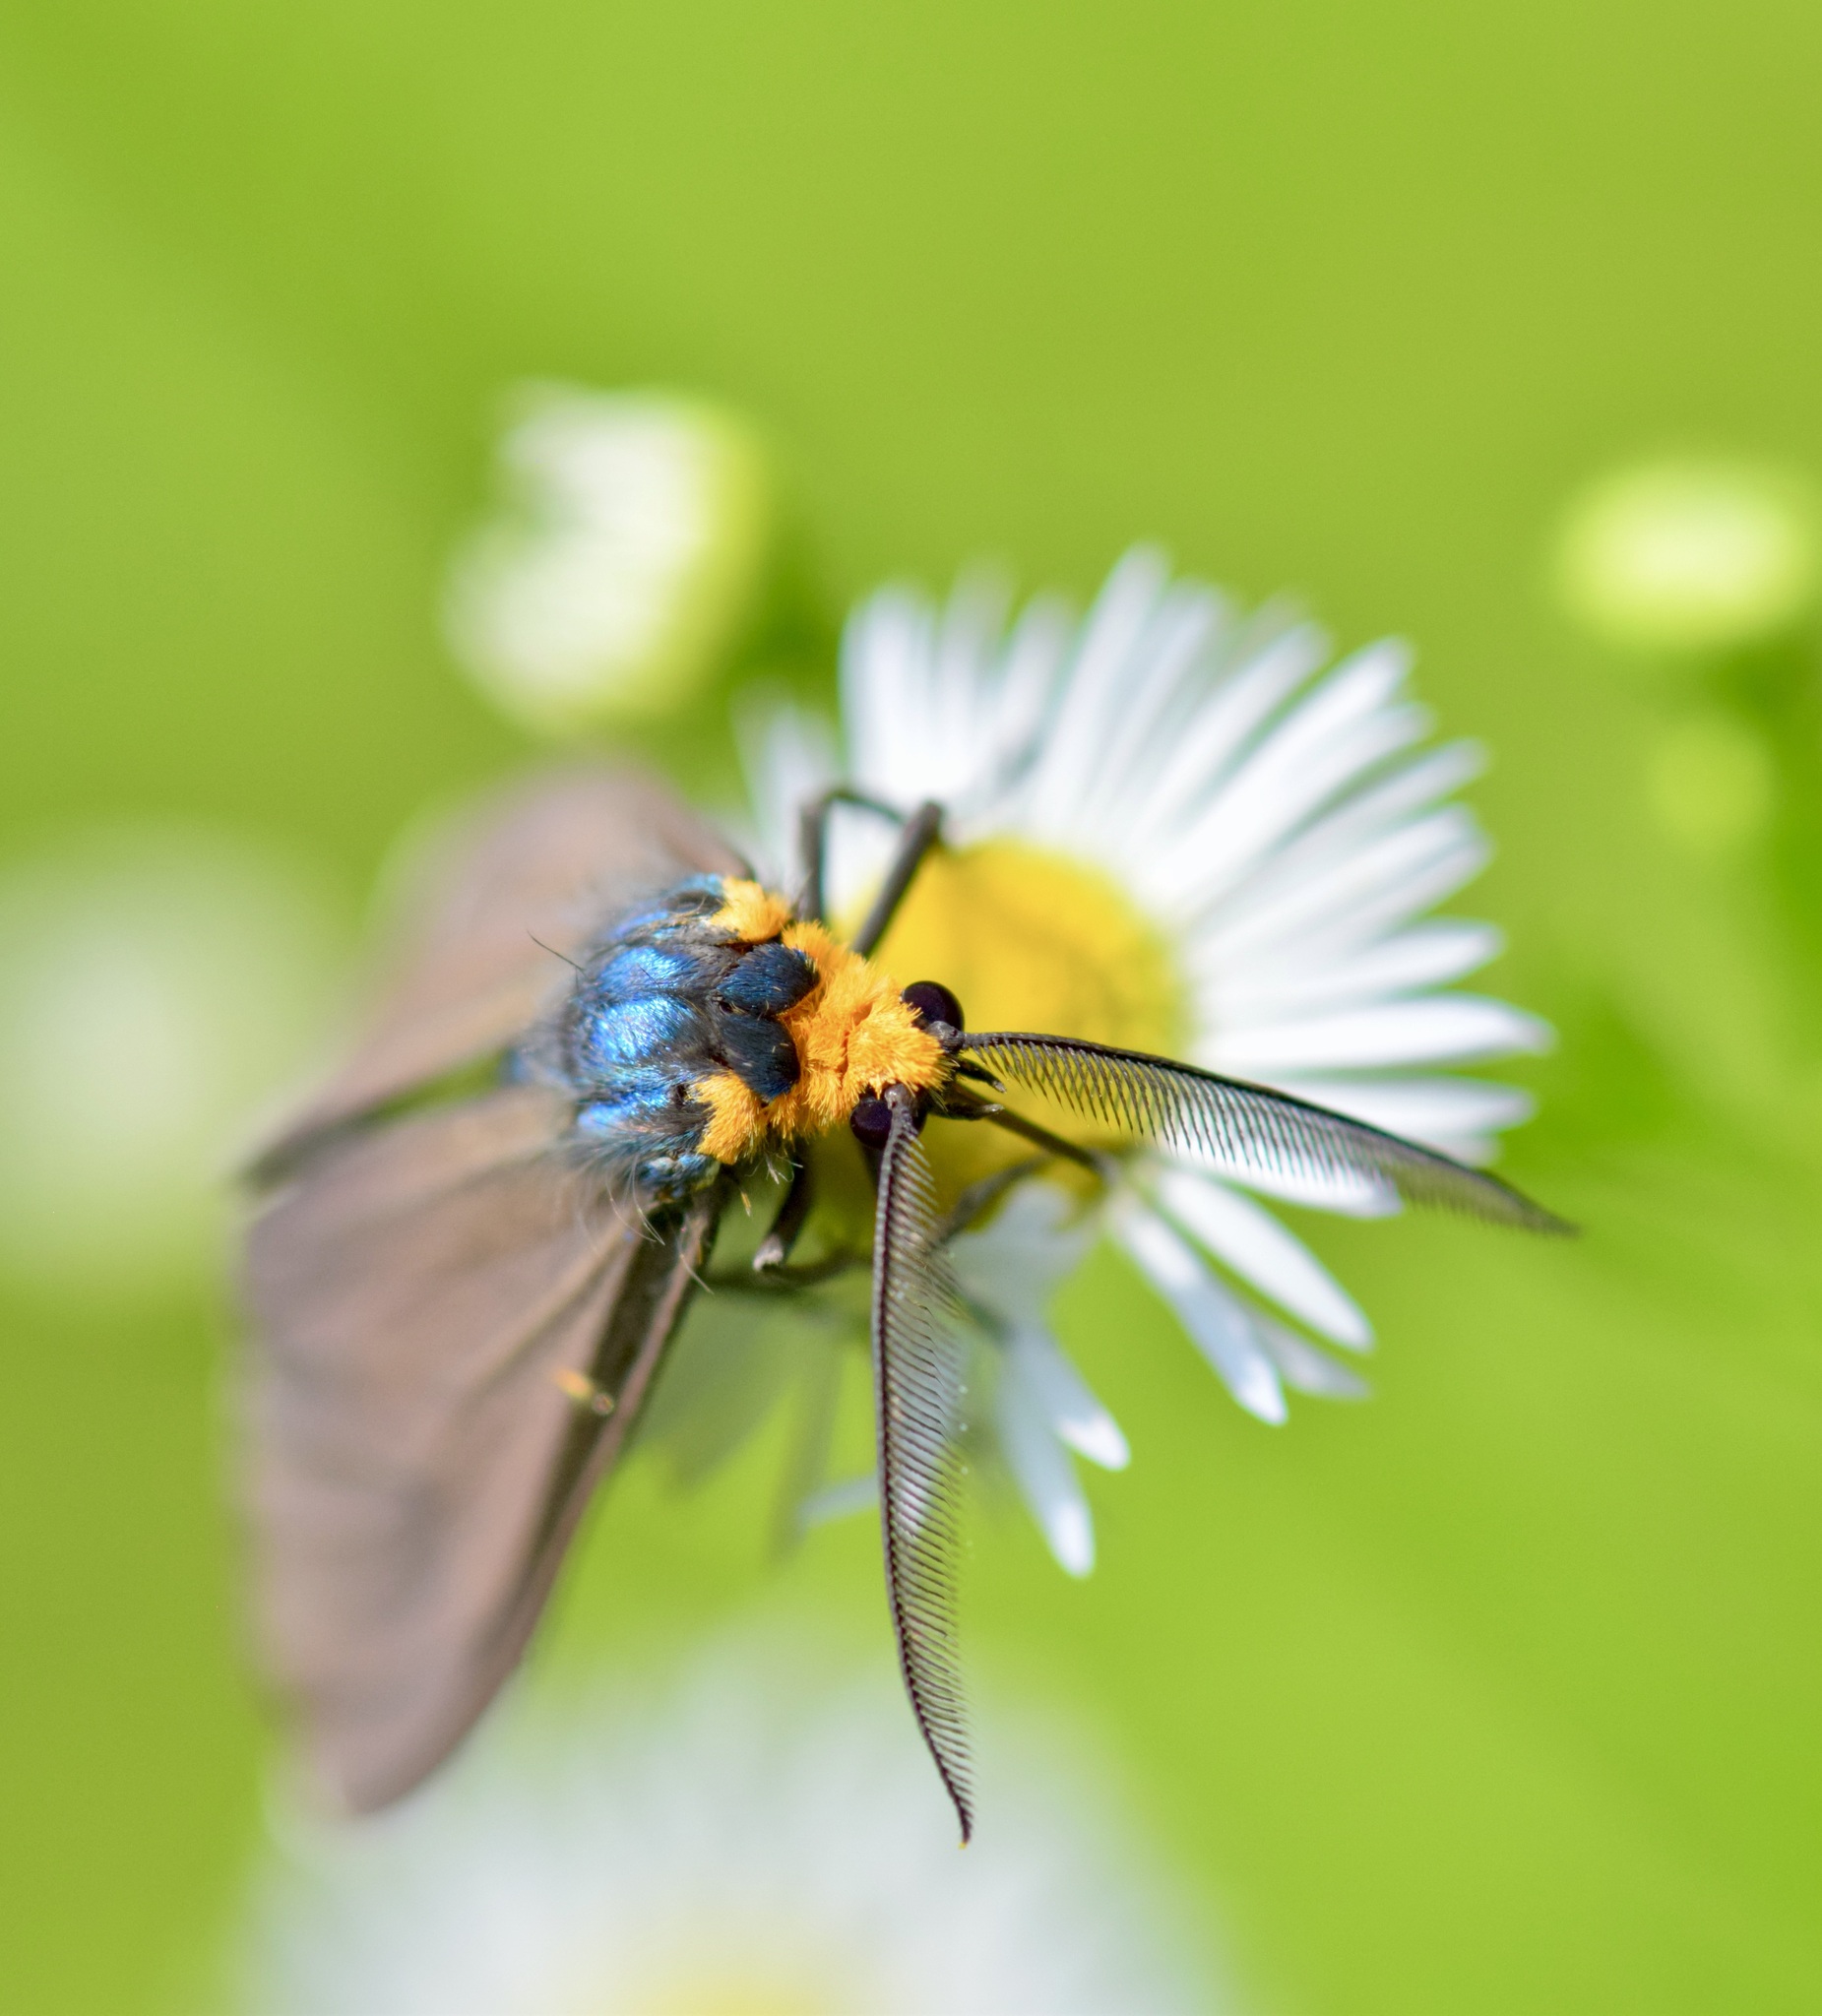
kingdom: Animalia
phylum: Arthropoda
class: Insecta
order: Lepidoptera
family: Erebidae
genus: Ctenucha
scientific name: Ctenucha virginica
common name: Virginia ctenucha moth
